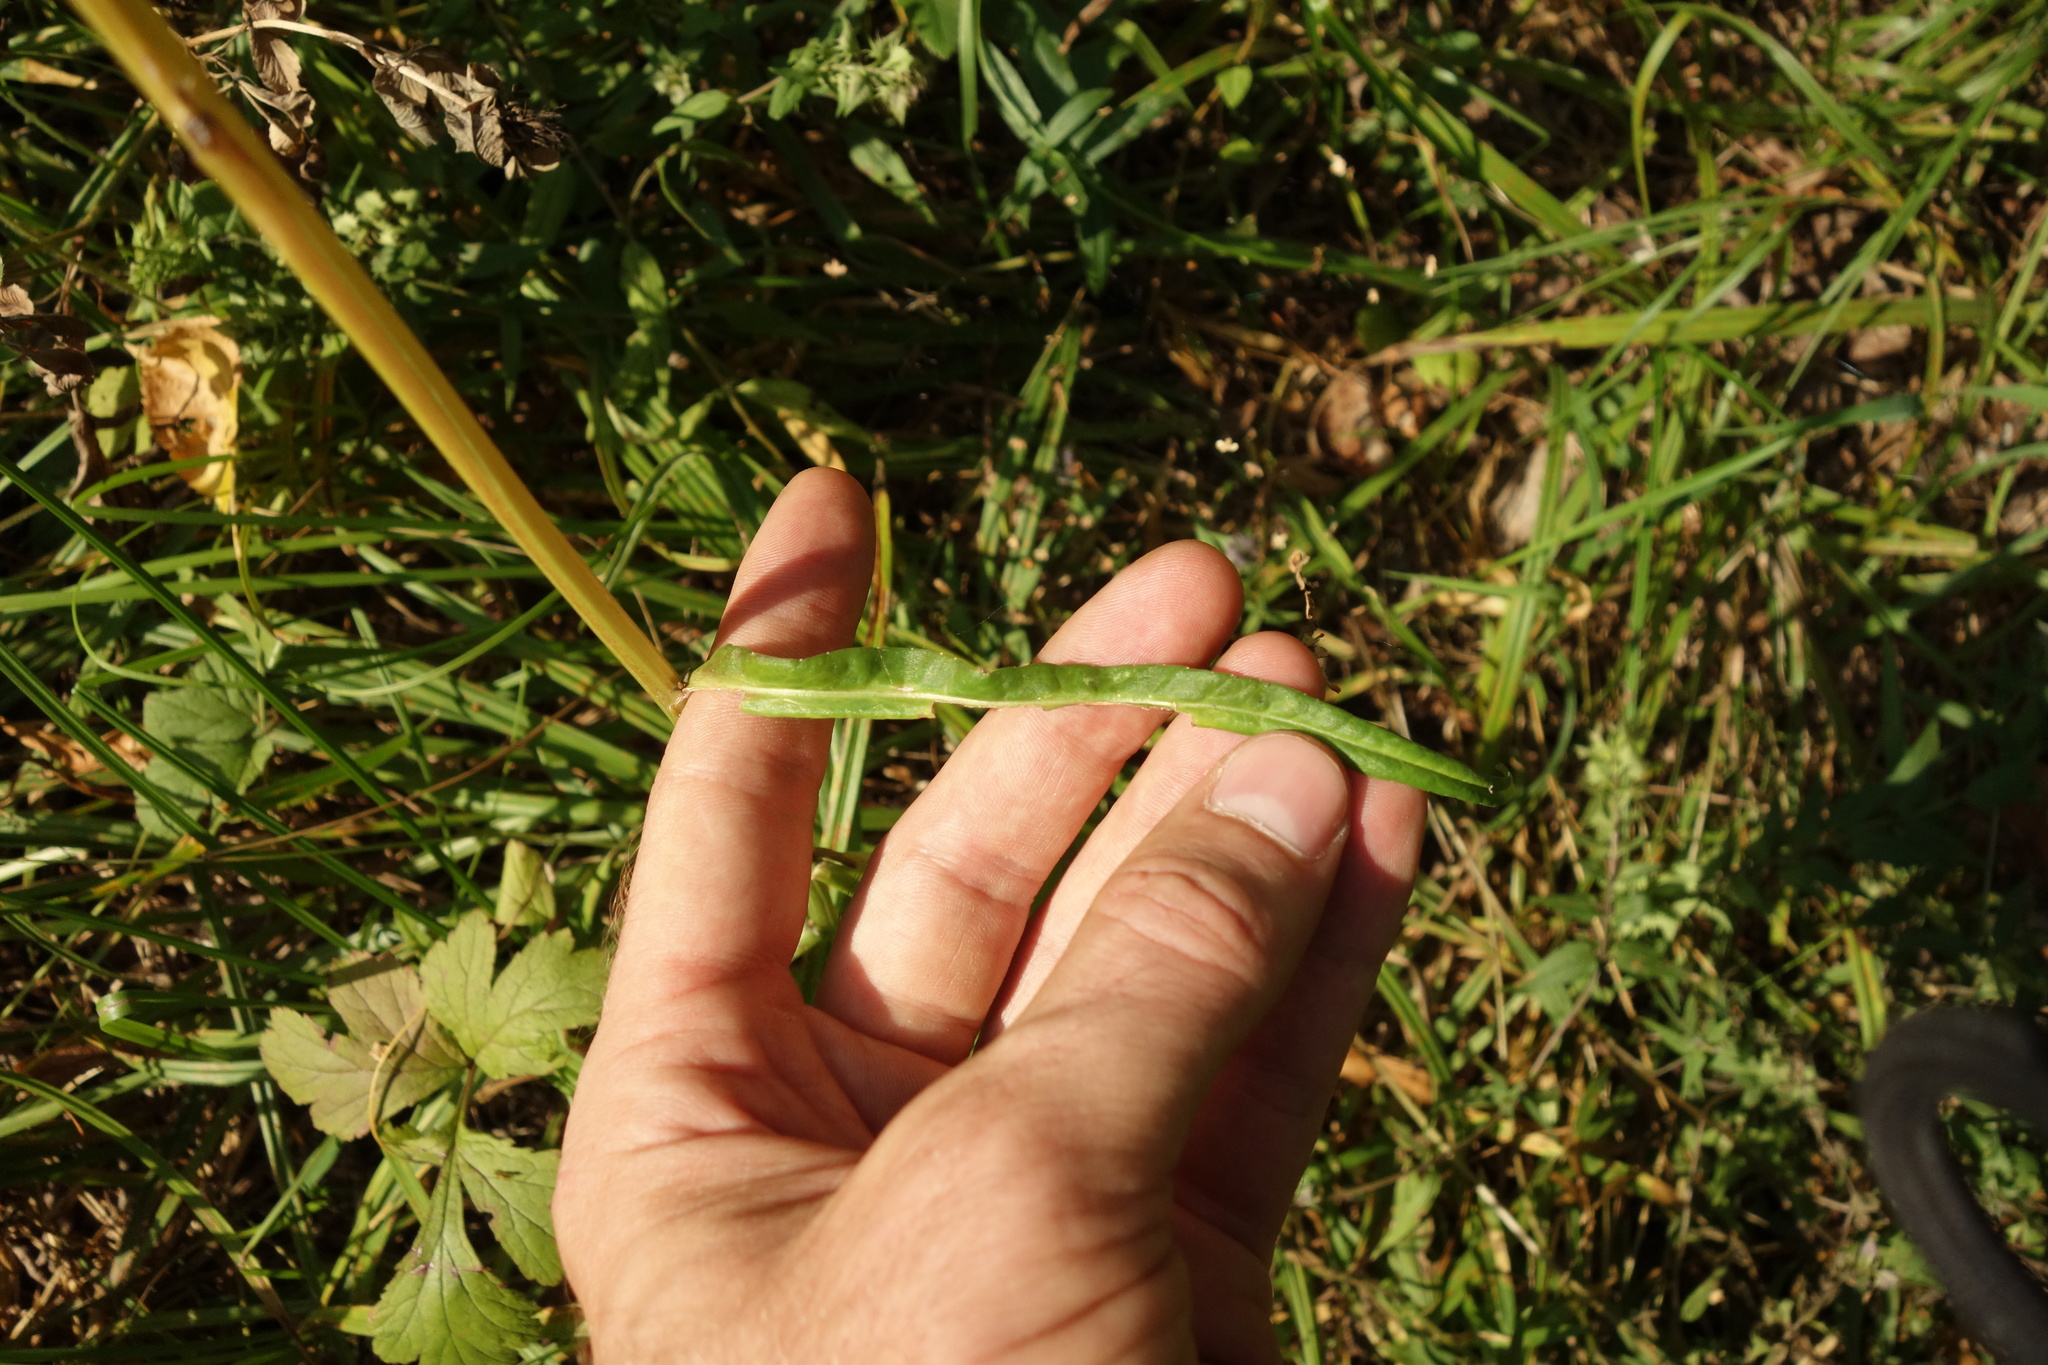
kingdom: Plantae
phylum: Tracheophyta
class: Magnoliopsida
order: Asterales
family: Campanulaceae
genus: Campanula
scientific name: Campanula persicifolia
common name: Peach-leaved bellflower
